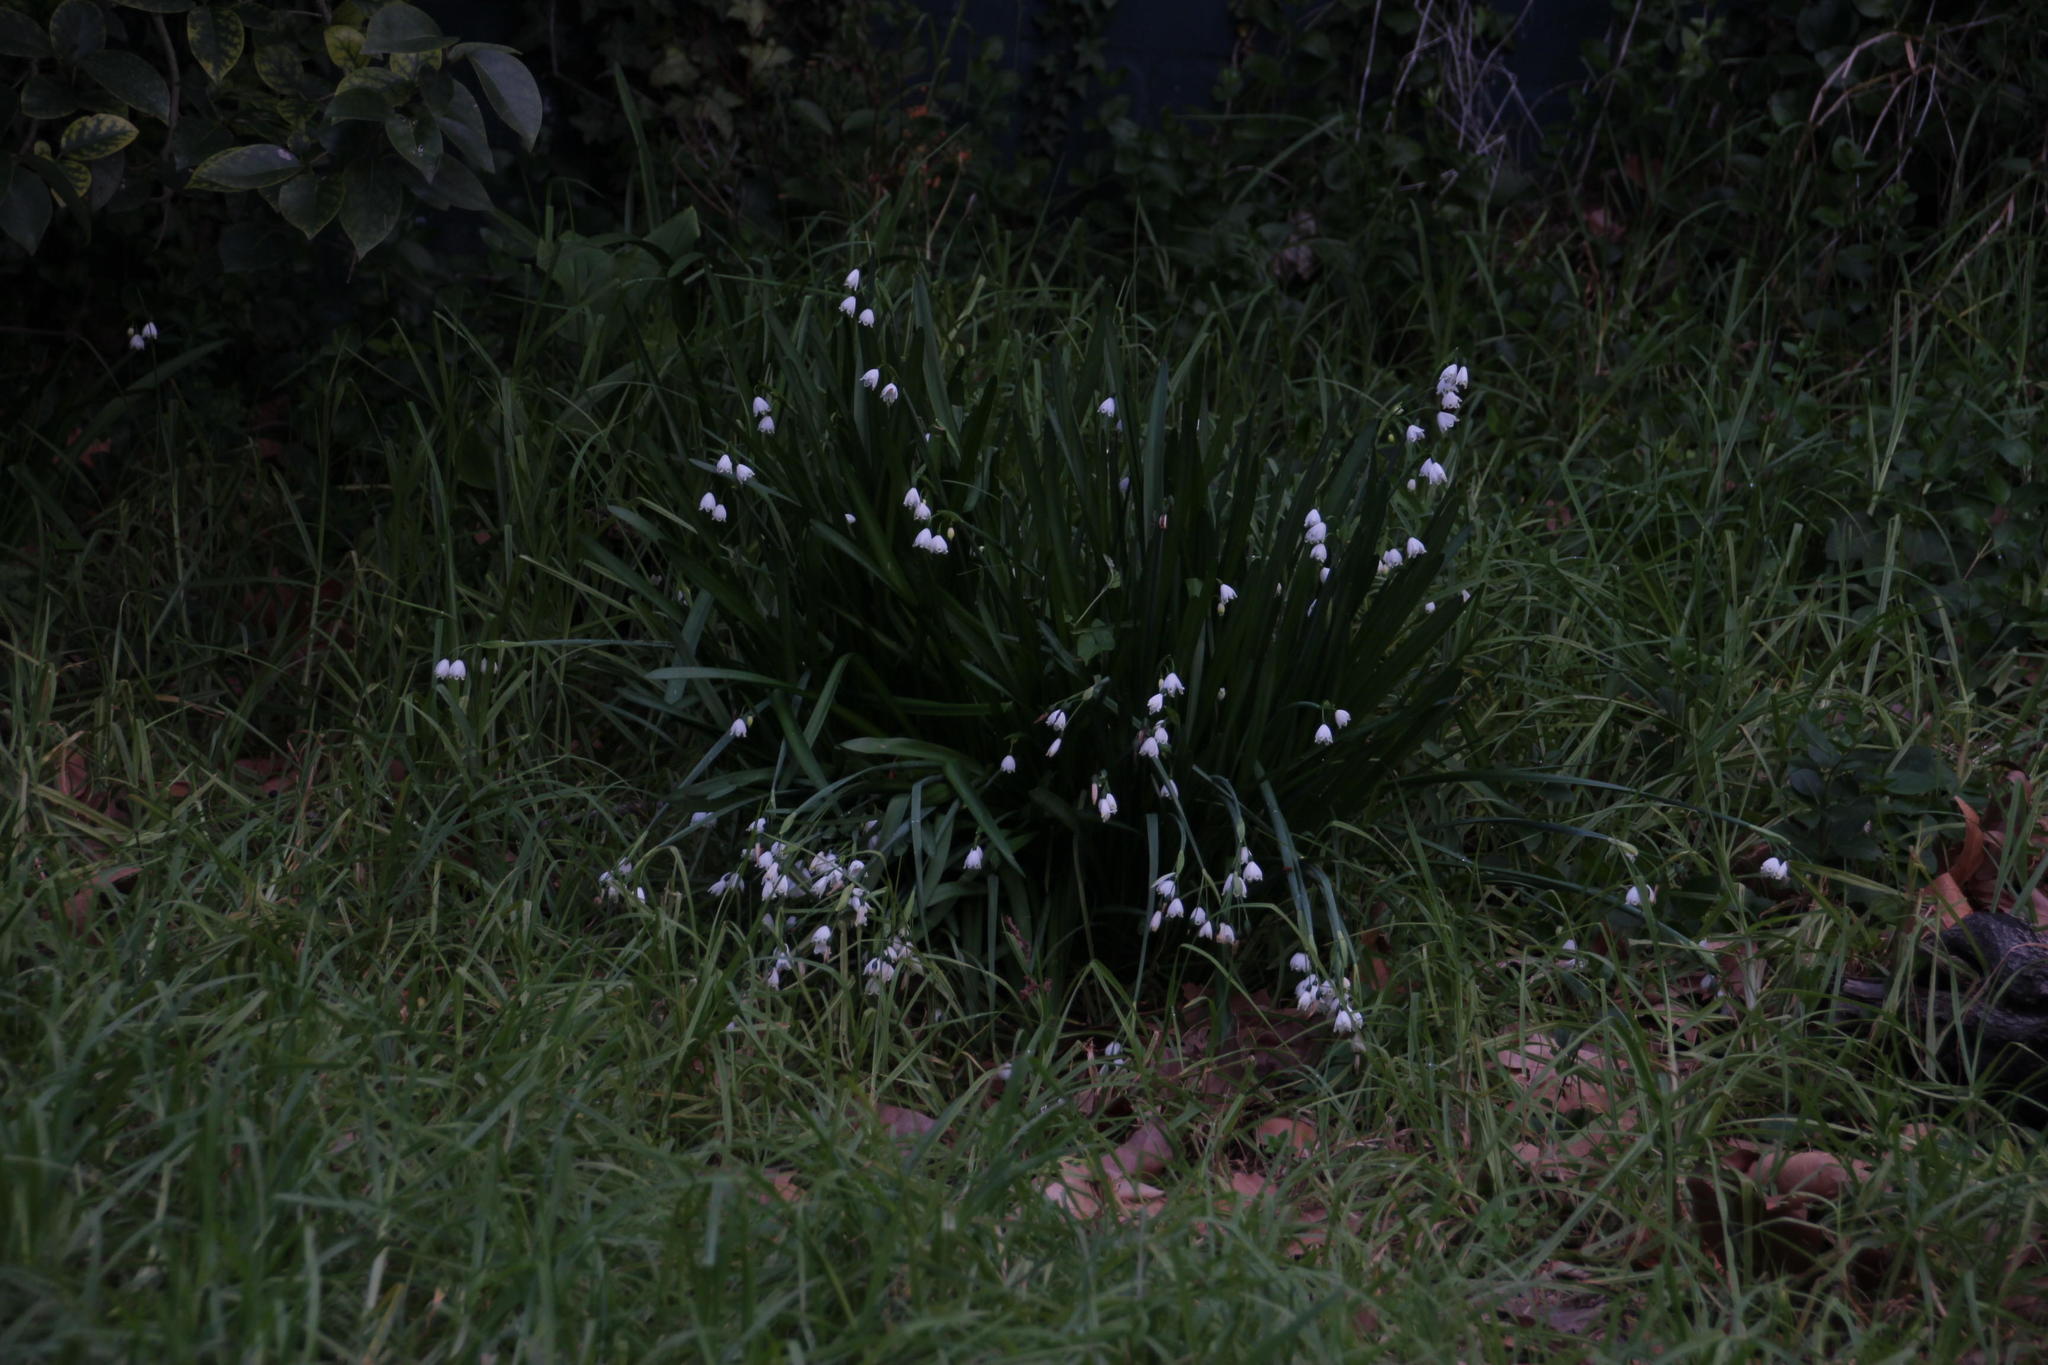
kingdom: Plantae
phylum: Tracheophyta
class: Liliopsida
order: Asparagales
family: Amaryllidaceae
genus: Leucojum
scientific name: Leucojum aestivum
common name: Summer snowflake
